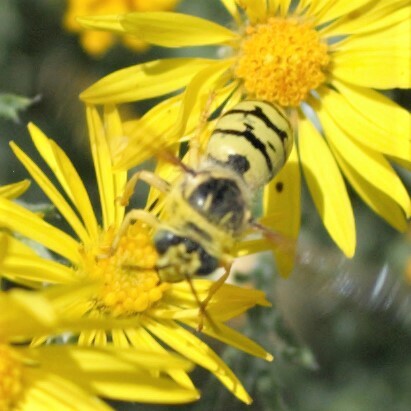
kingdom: Animalia
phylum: Arthropoda
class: Insecta
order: Hymenoptera
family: Crabronidae
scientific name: Crabronidae
